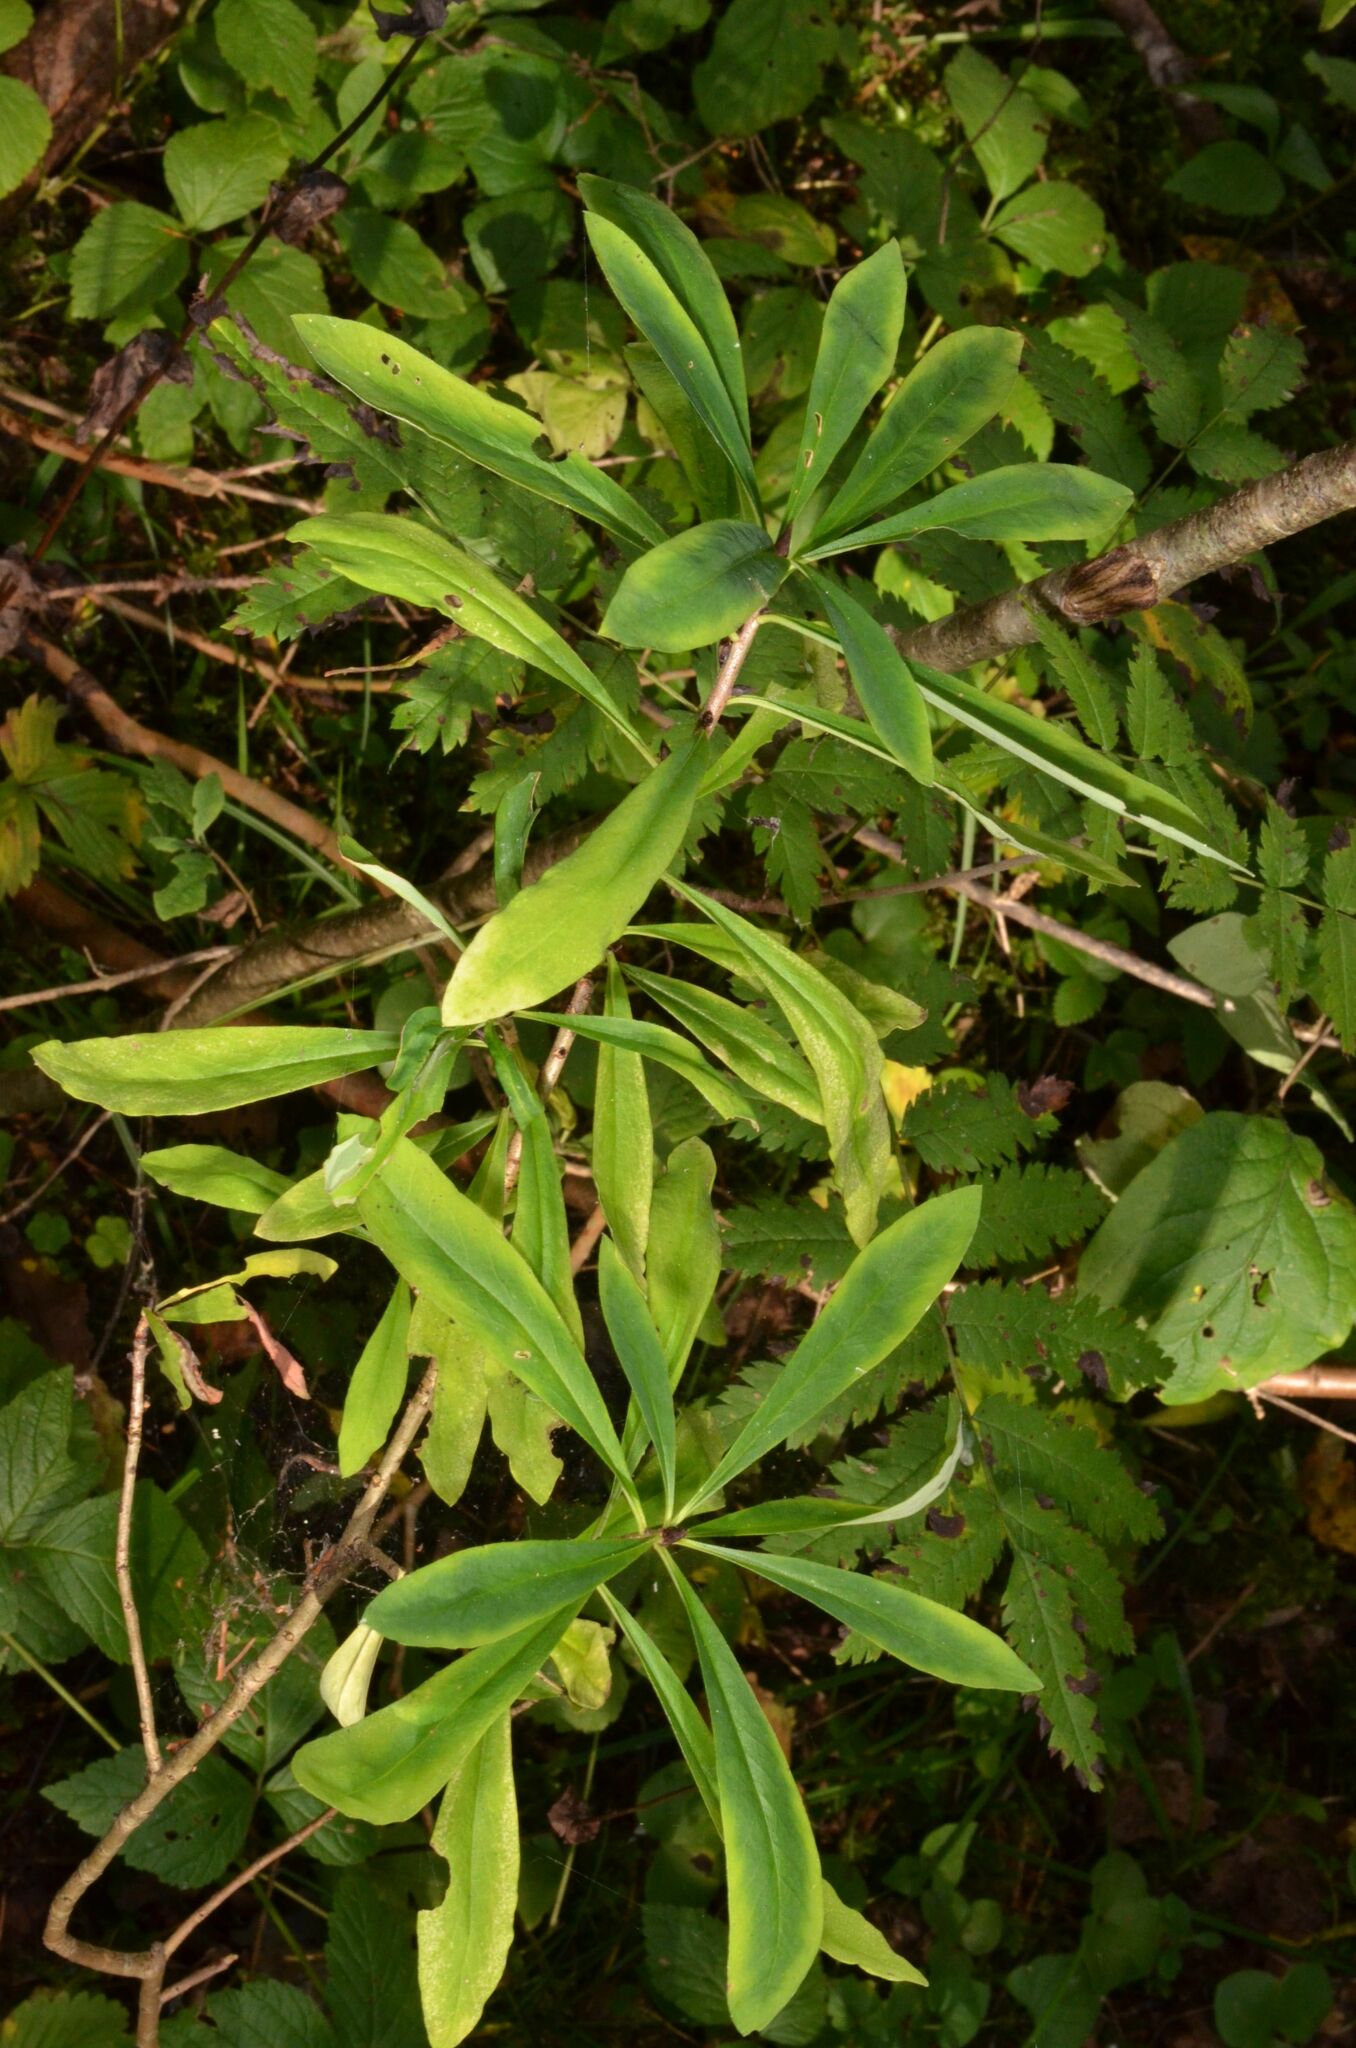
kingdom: Plantae
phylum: Tracheophyta
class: Magnoliopsida
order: Malvales
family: Thymelaeaceae
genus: Daphne
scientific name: Daphne mezereum
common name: Mezereon
